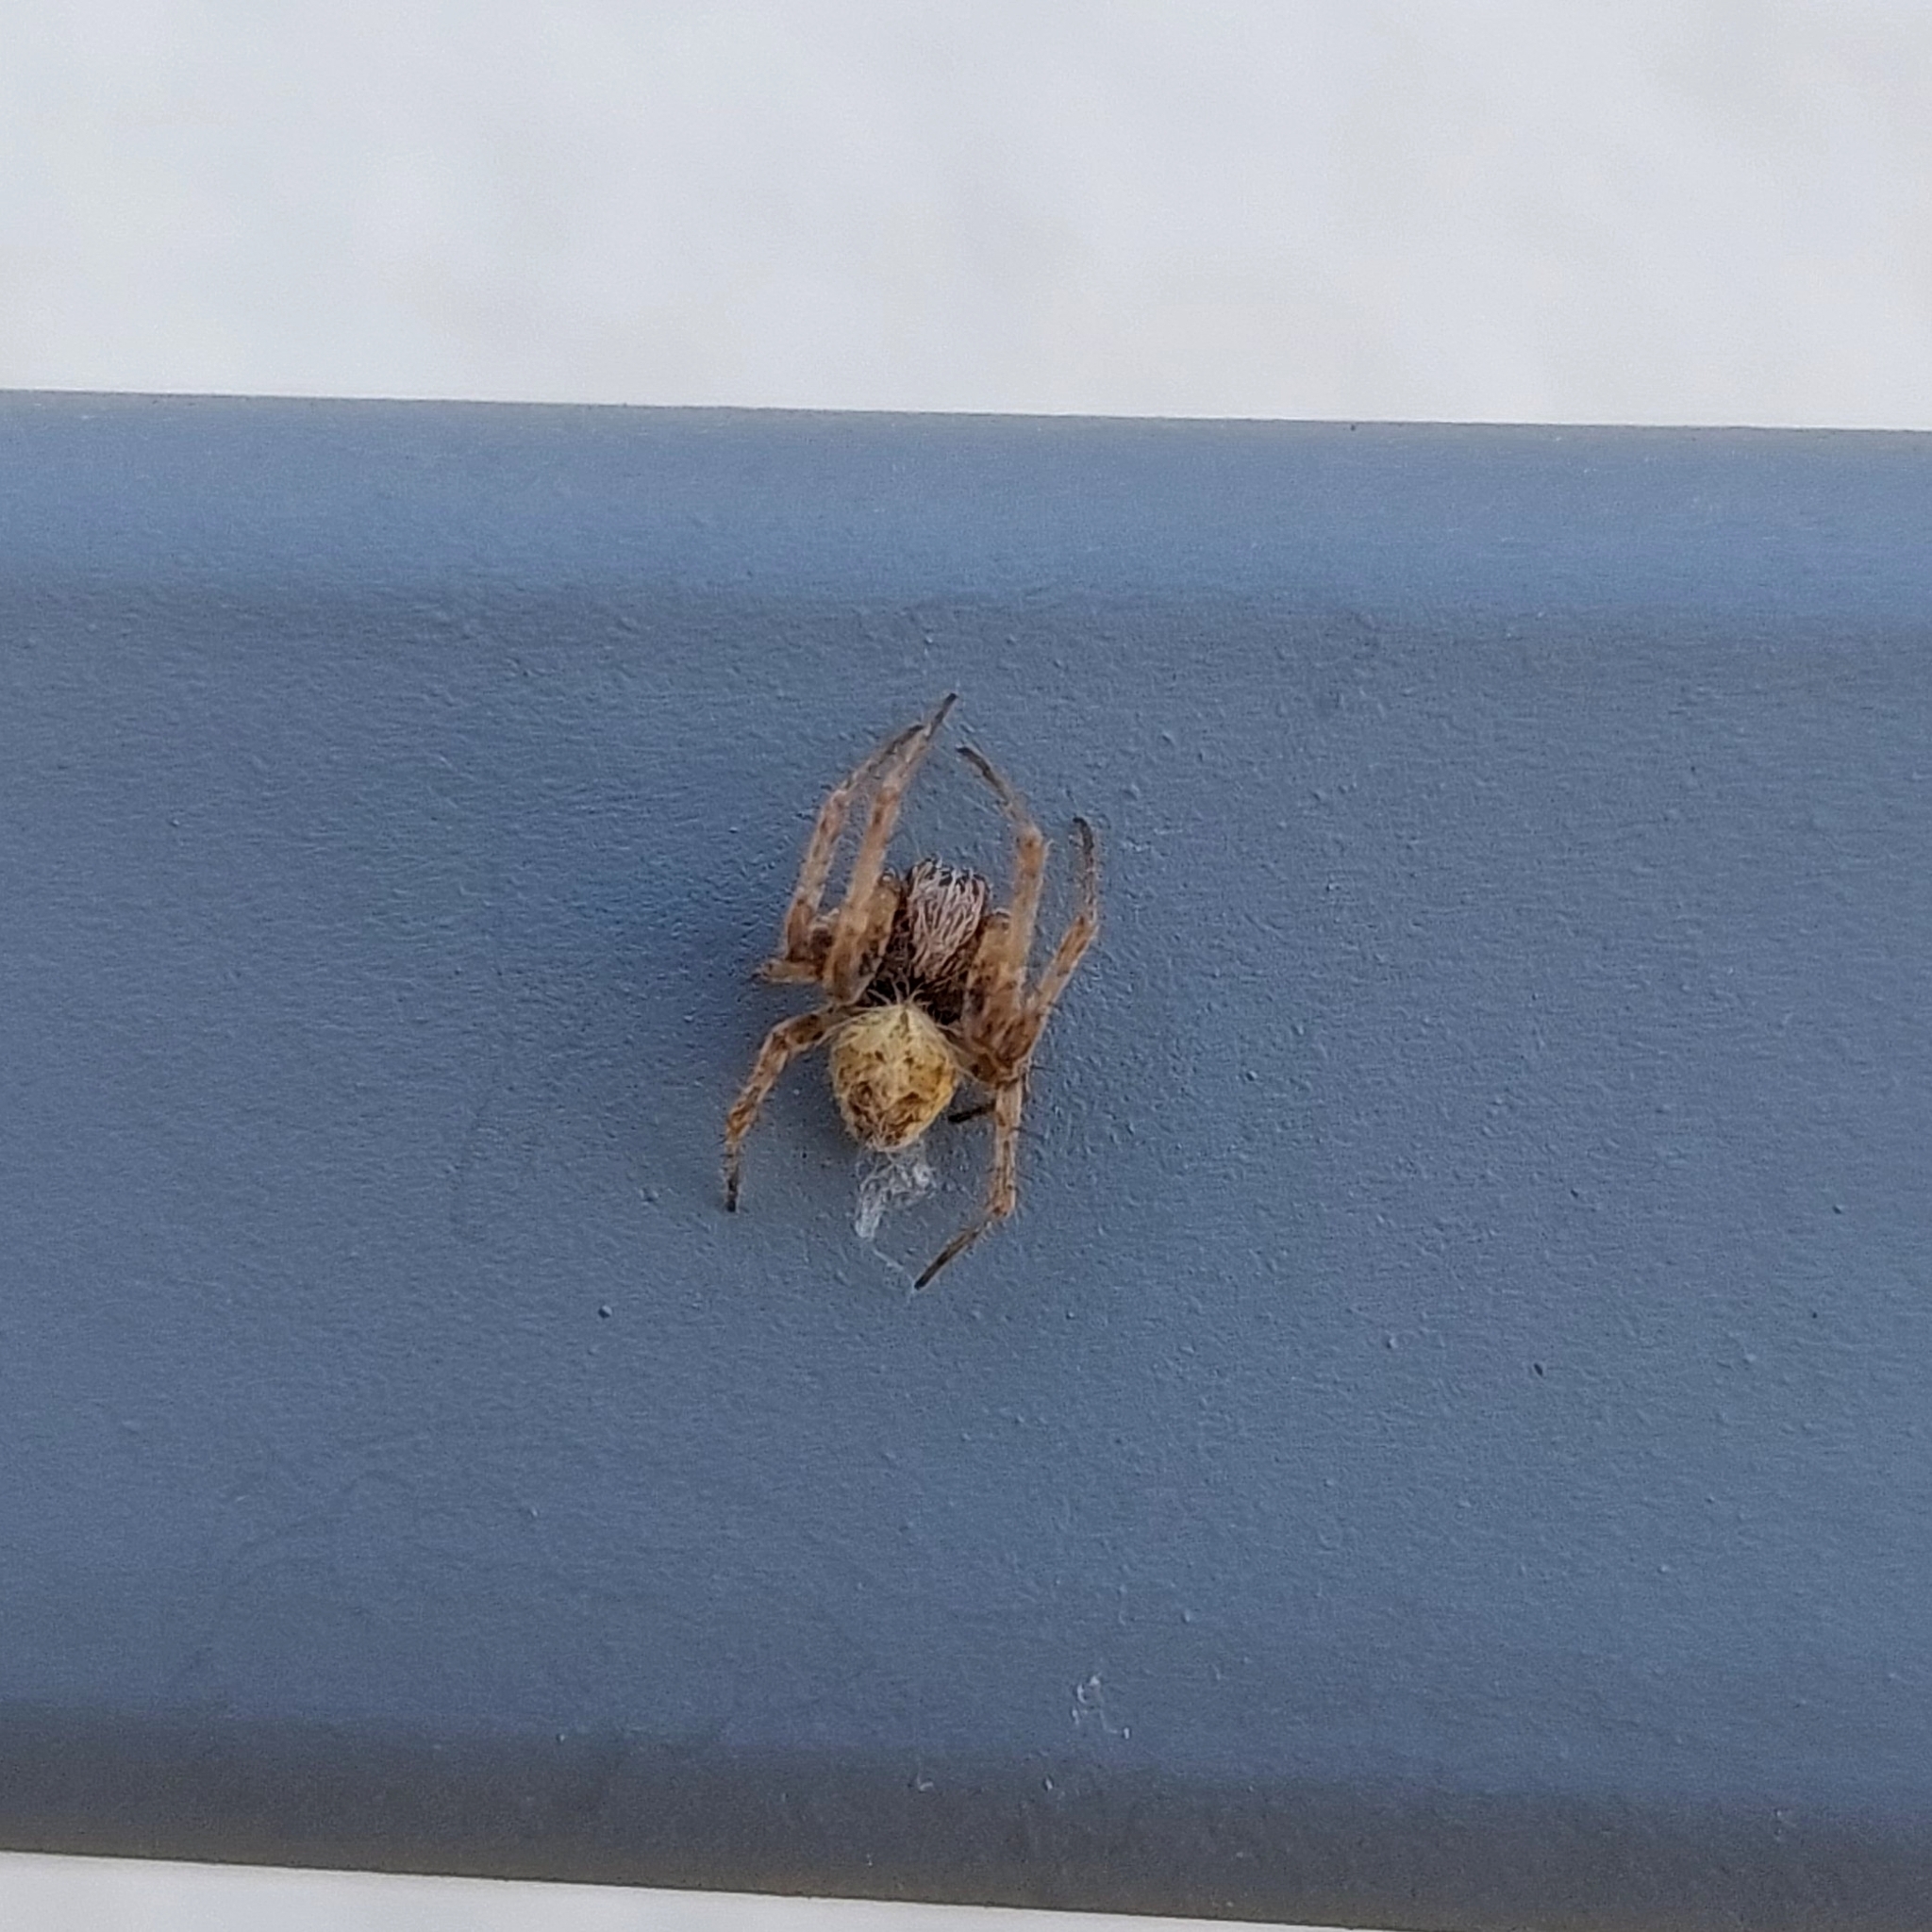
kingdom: Animalia
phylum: Arthropoda
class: Arachnida
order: Araneae
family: Araneidae
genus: Metepeira
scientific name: Metepeira
